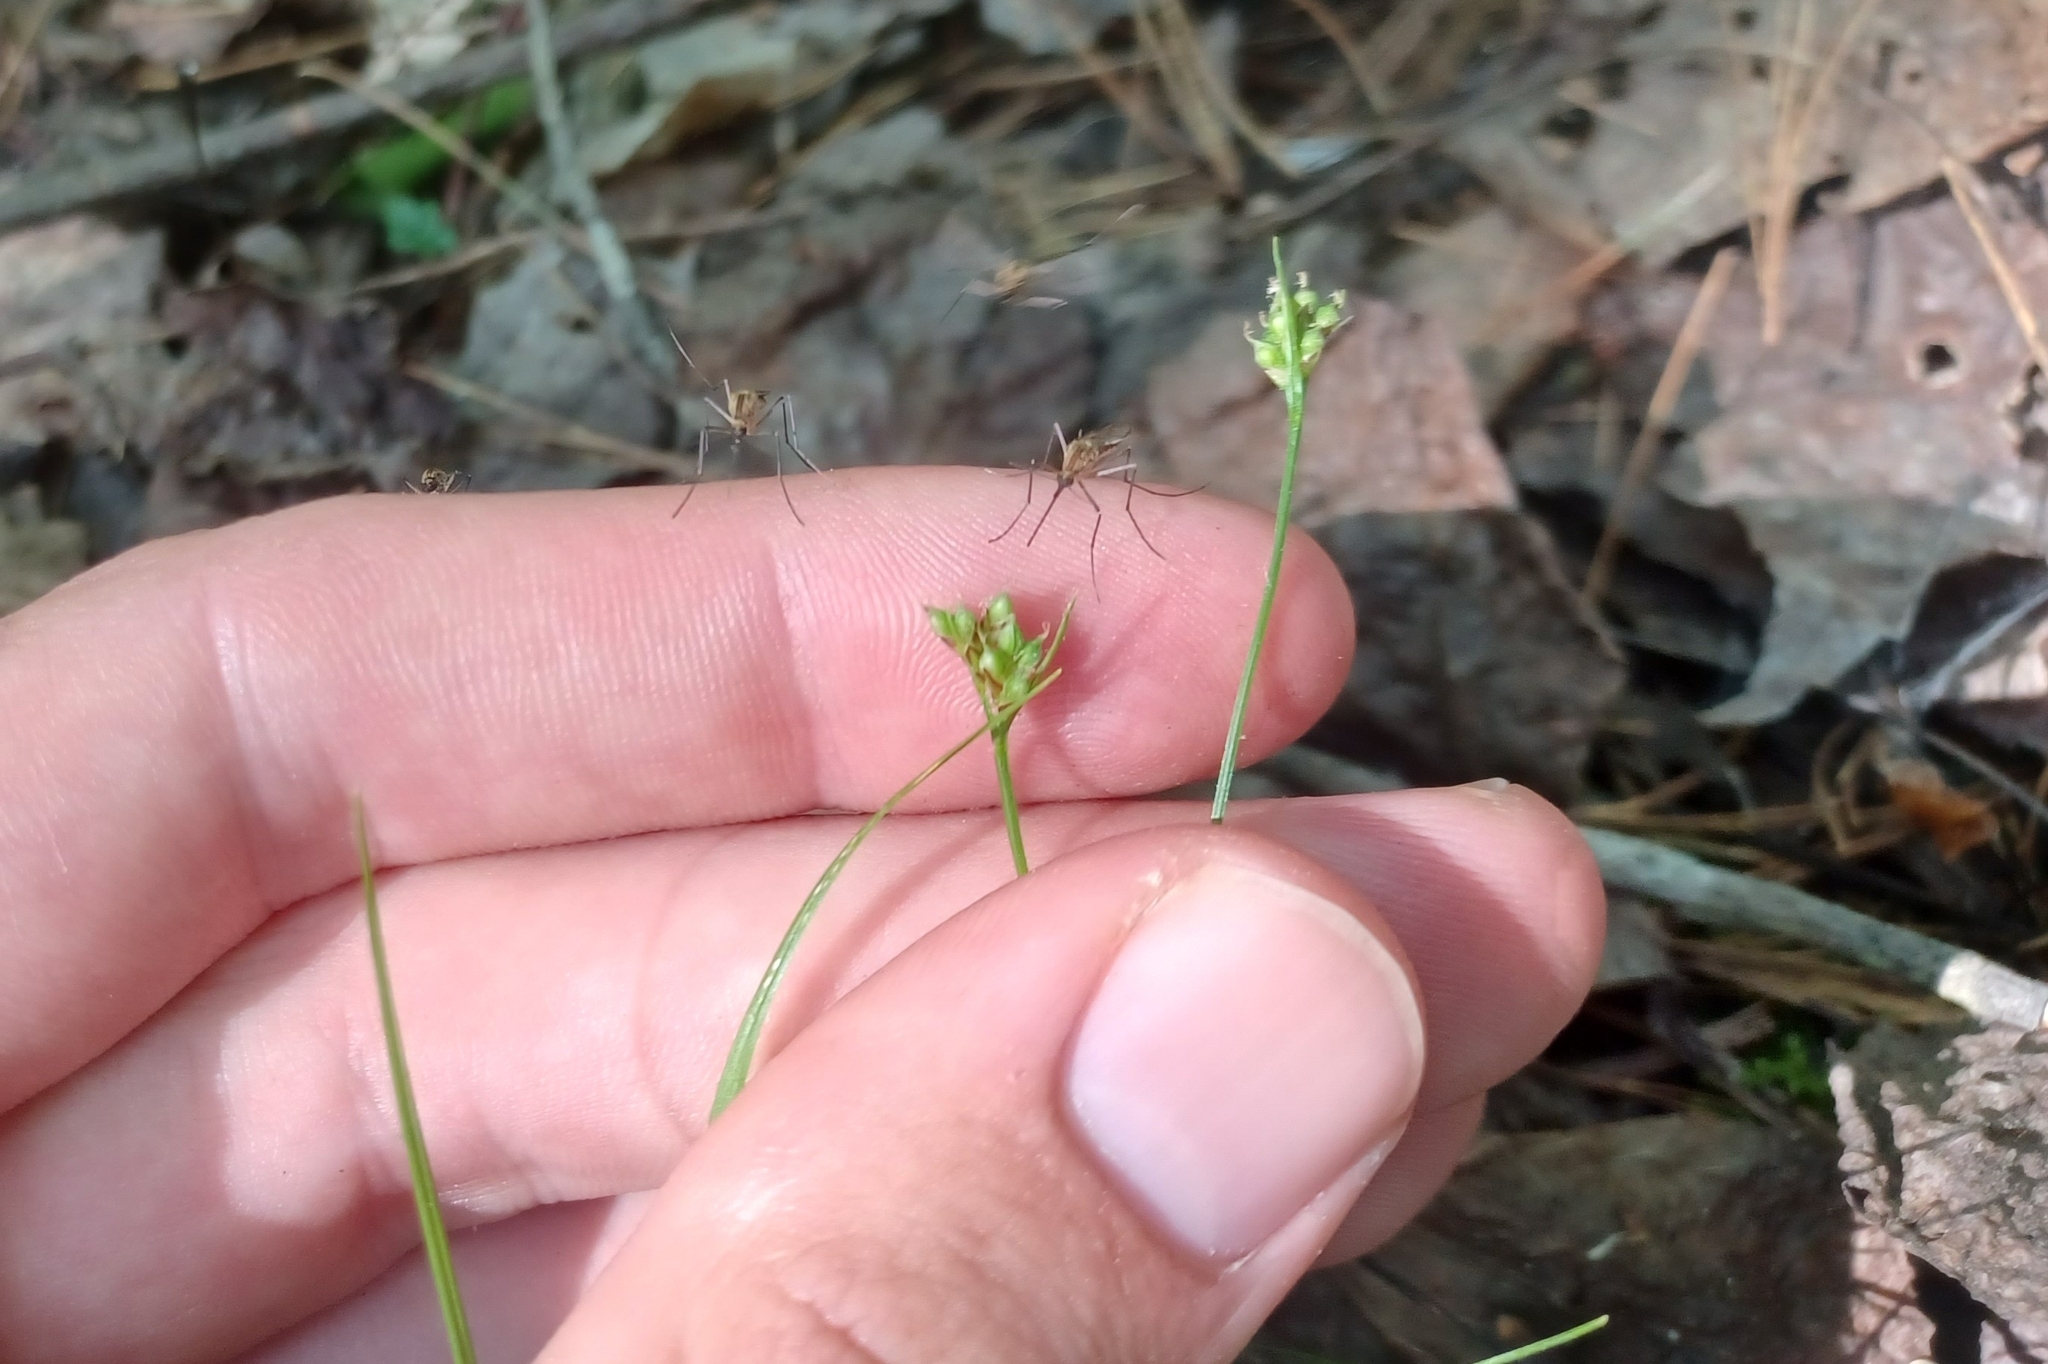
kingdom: Plantae
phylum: Tracheophyta
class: Liliopsida
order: Poales
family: Cyperaceae
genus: Carex
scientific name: Carex deflexa
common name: Bent northern sedge
